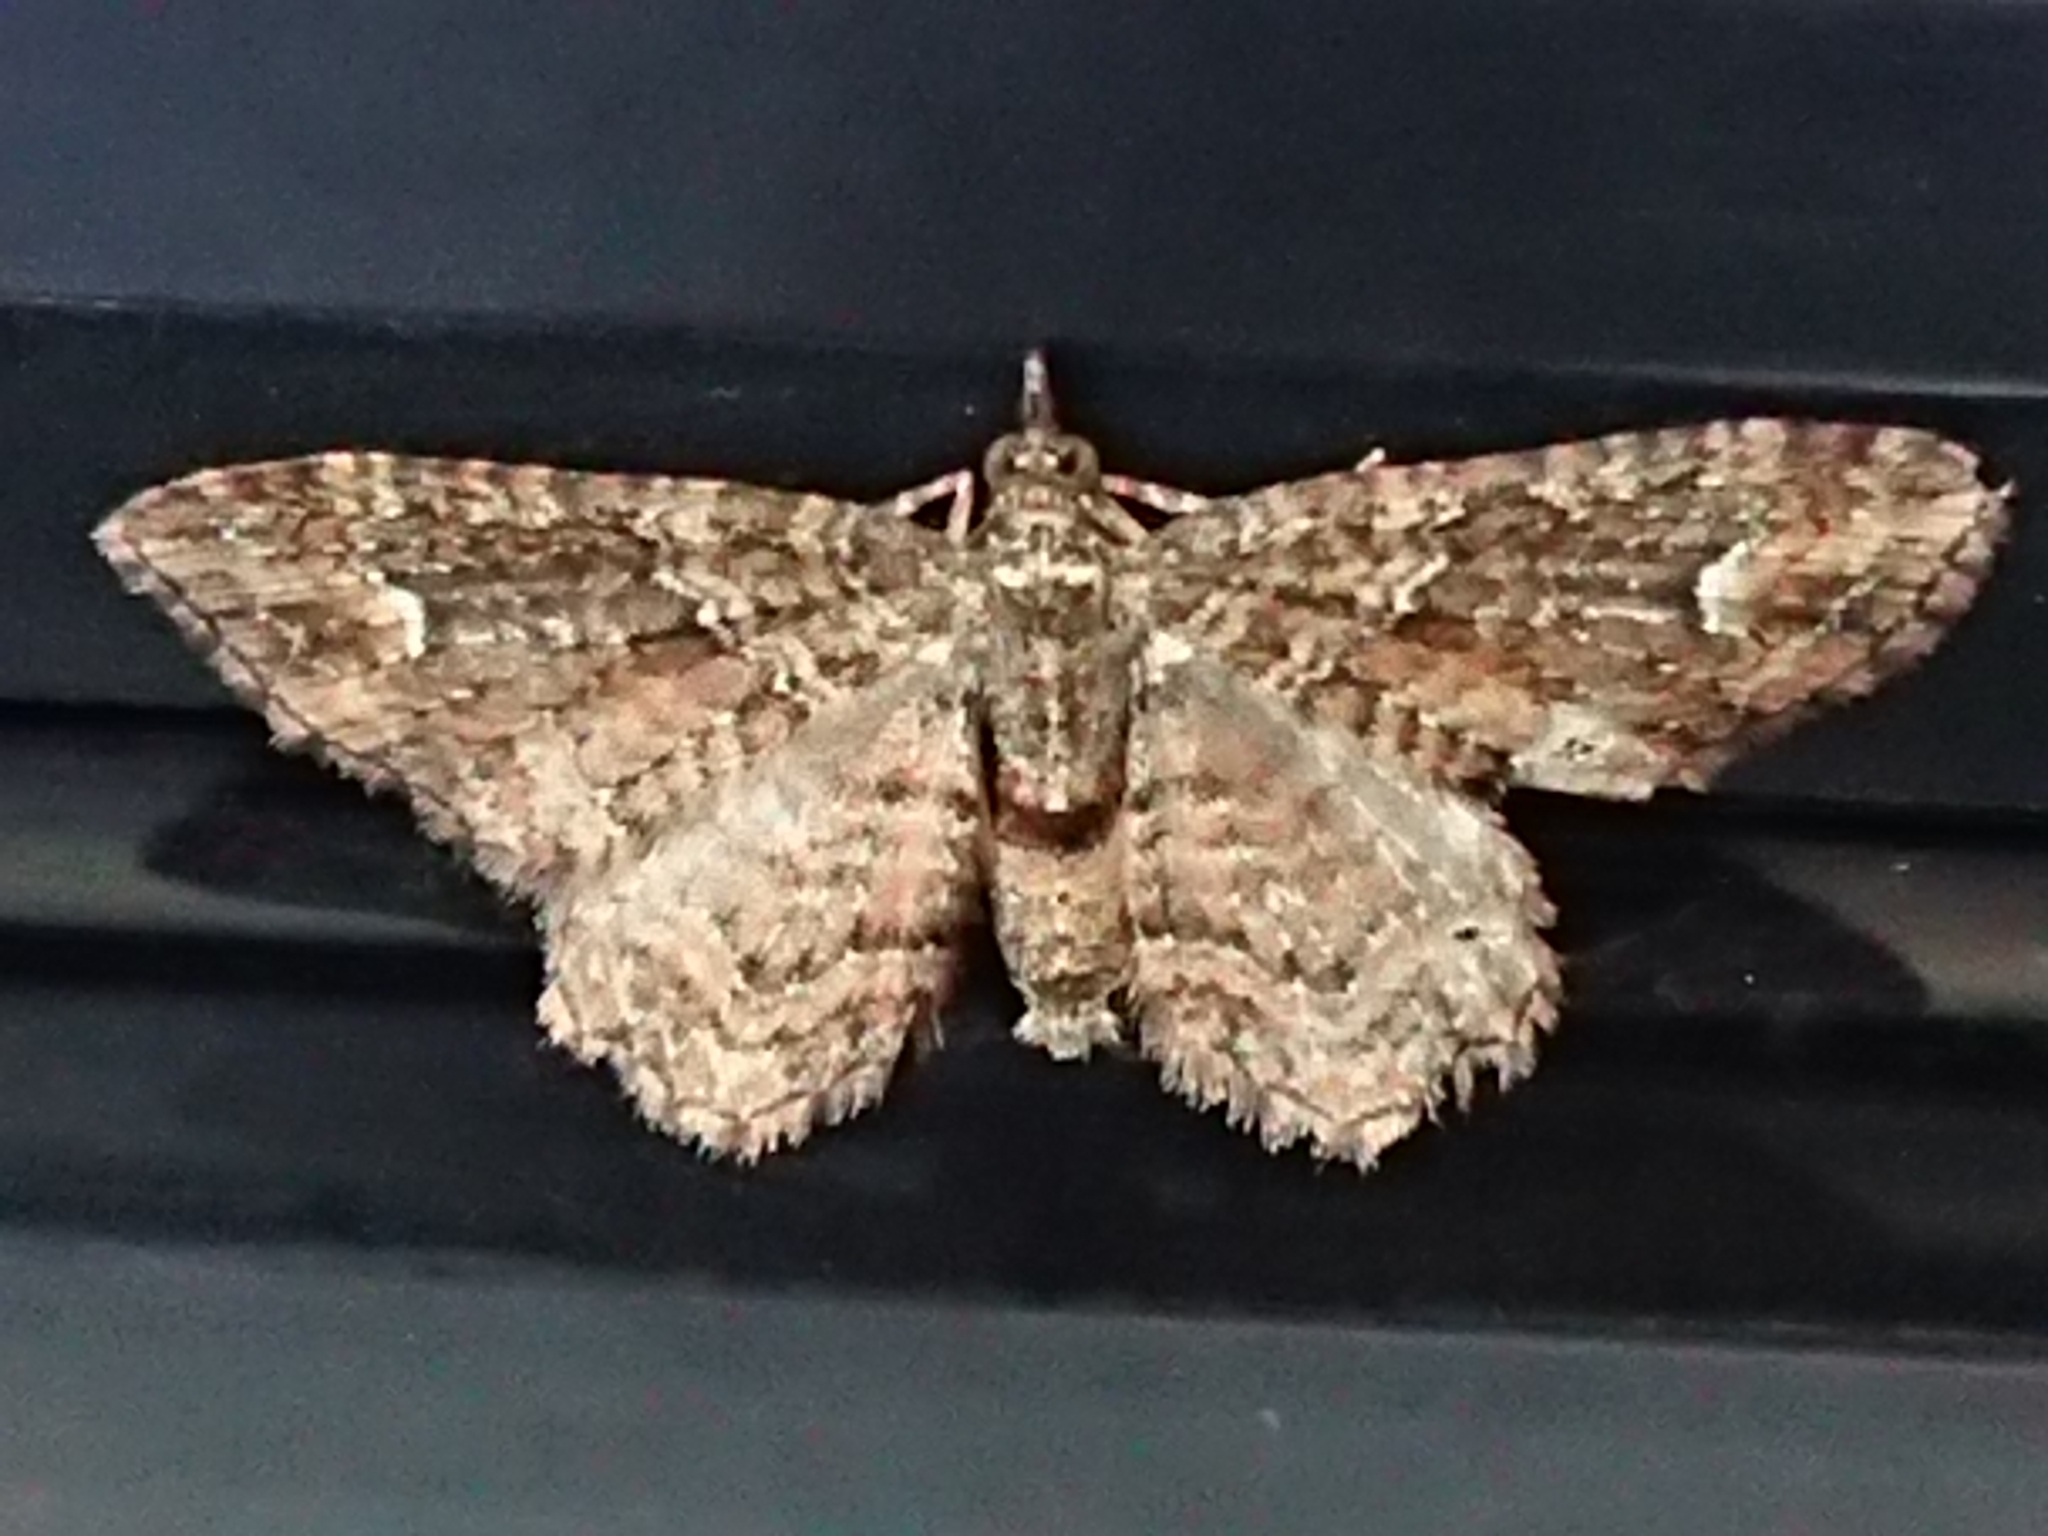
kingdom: Animalia
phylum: Arthropoda
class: Insecta
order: Lepidoptera
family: Geometridae
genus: Pasiphilodes
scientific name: Pasiphilodes testulata
